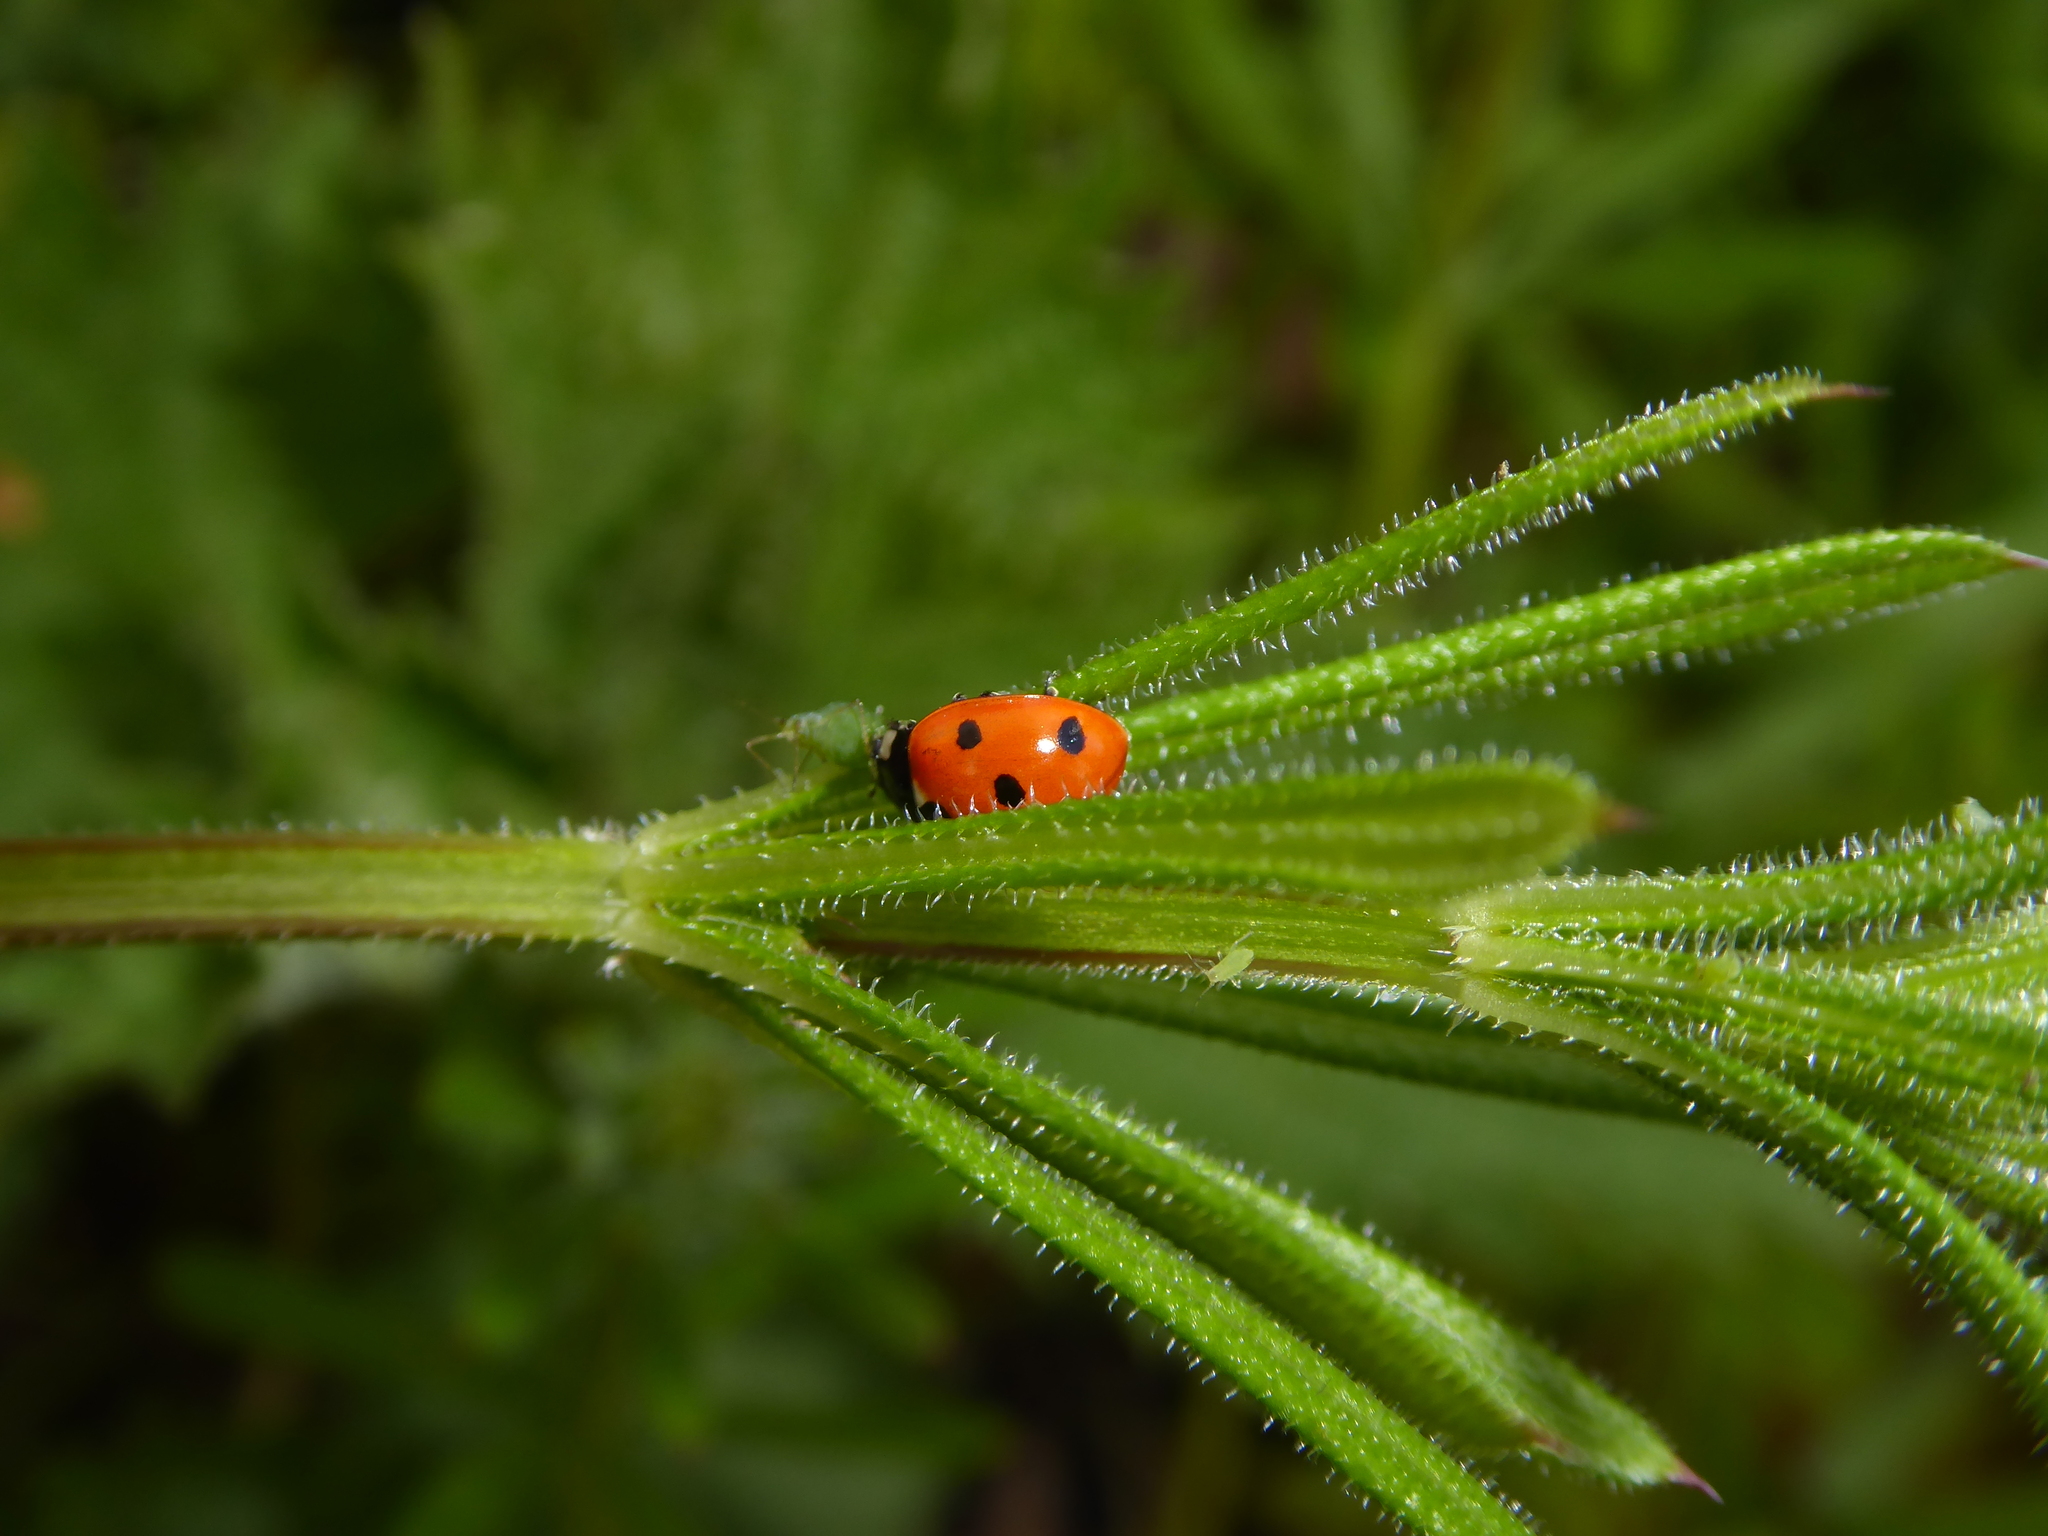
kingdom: Animalia
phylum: Arthropoda
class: Insecta
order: Coleoptera
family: Coccinellidae
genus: Coccinella
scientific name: Coccinella septempunctata
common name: Sevenspotted lady beetle
